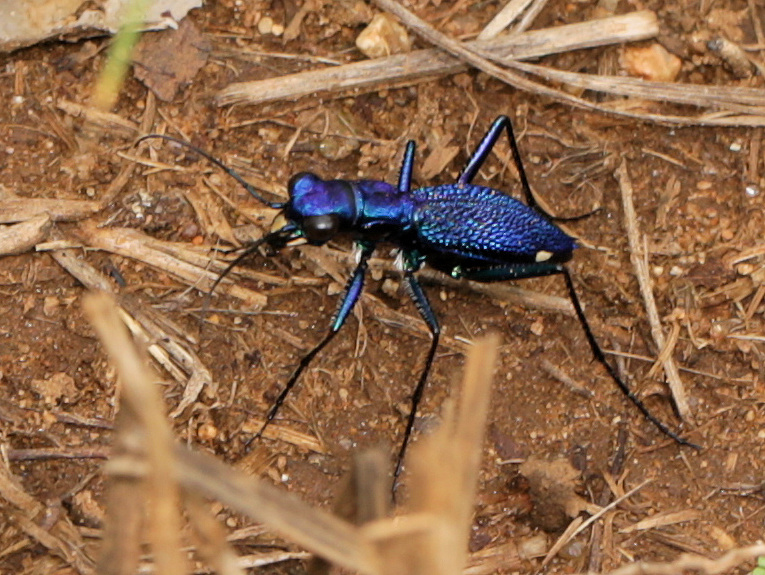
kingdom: Animalia
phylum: Arthropoda
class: Insecta
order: Coleoptera
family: Carabidae
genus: Dromica
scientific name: Dromica kolbei
